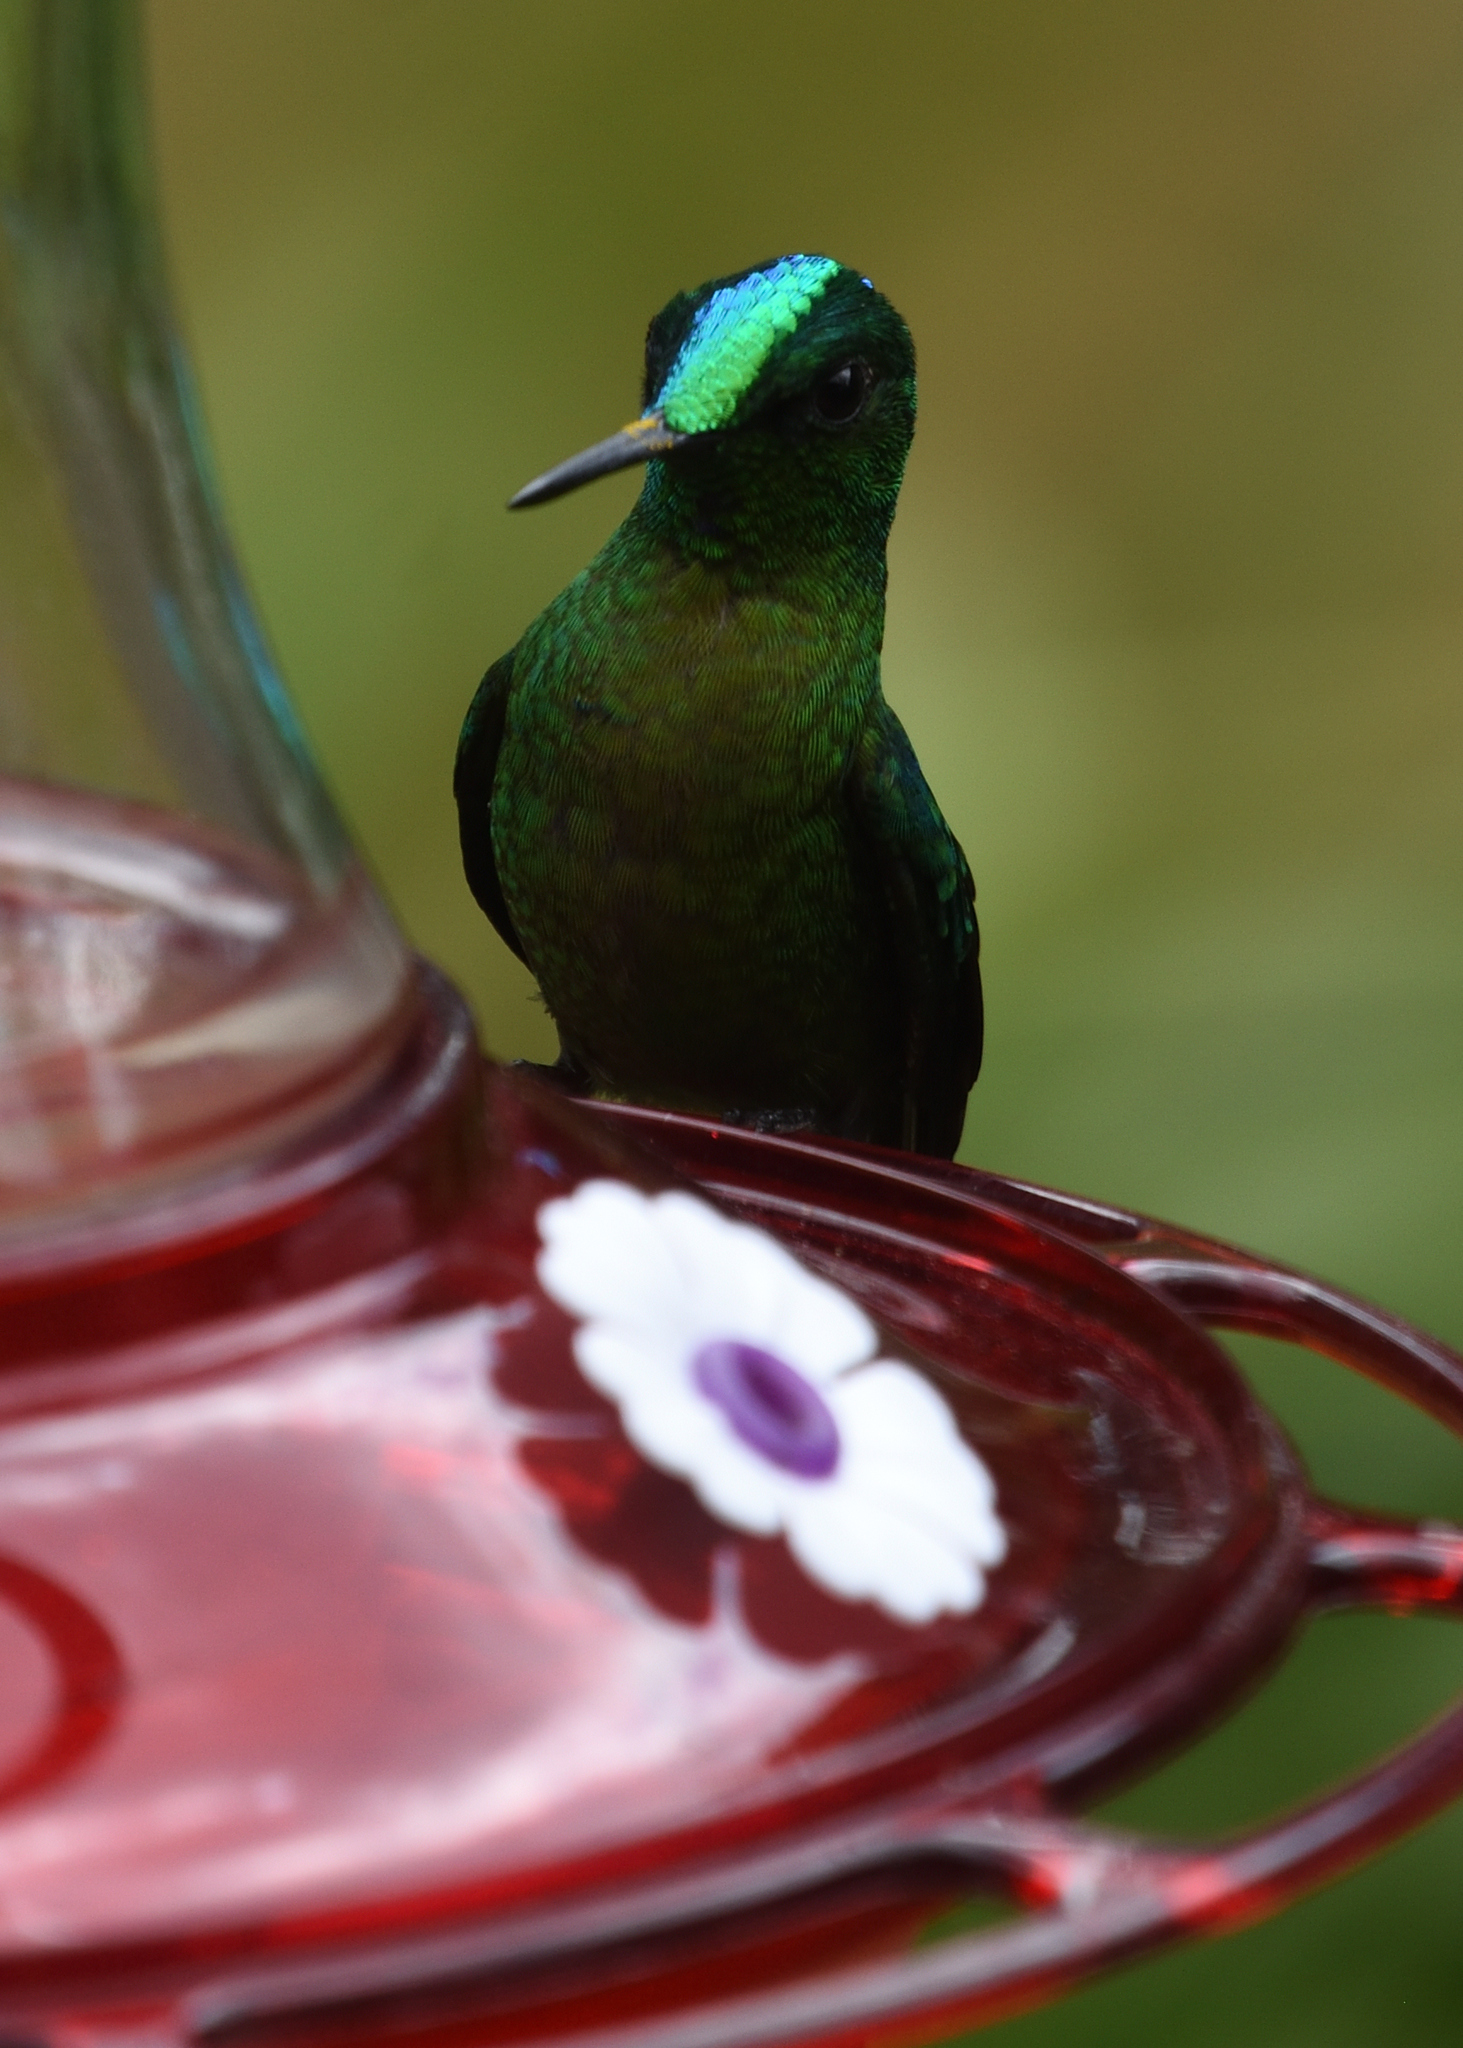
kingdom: Animalia
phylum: Chordata
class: Aves
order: Apodiformes
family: Trochilidae
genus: Aglaiocercus
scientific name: Aglaiocercus kingii
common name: Long-tailed sylph
